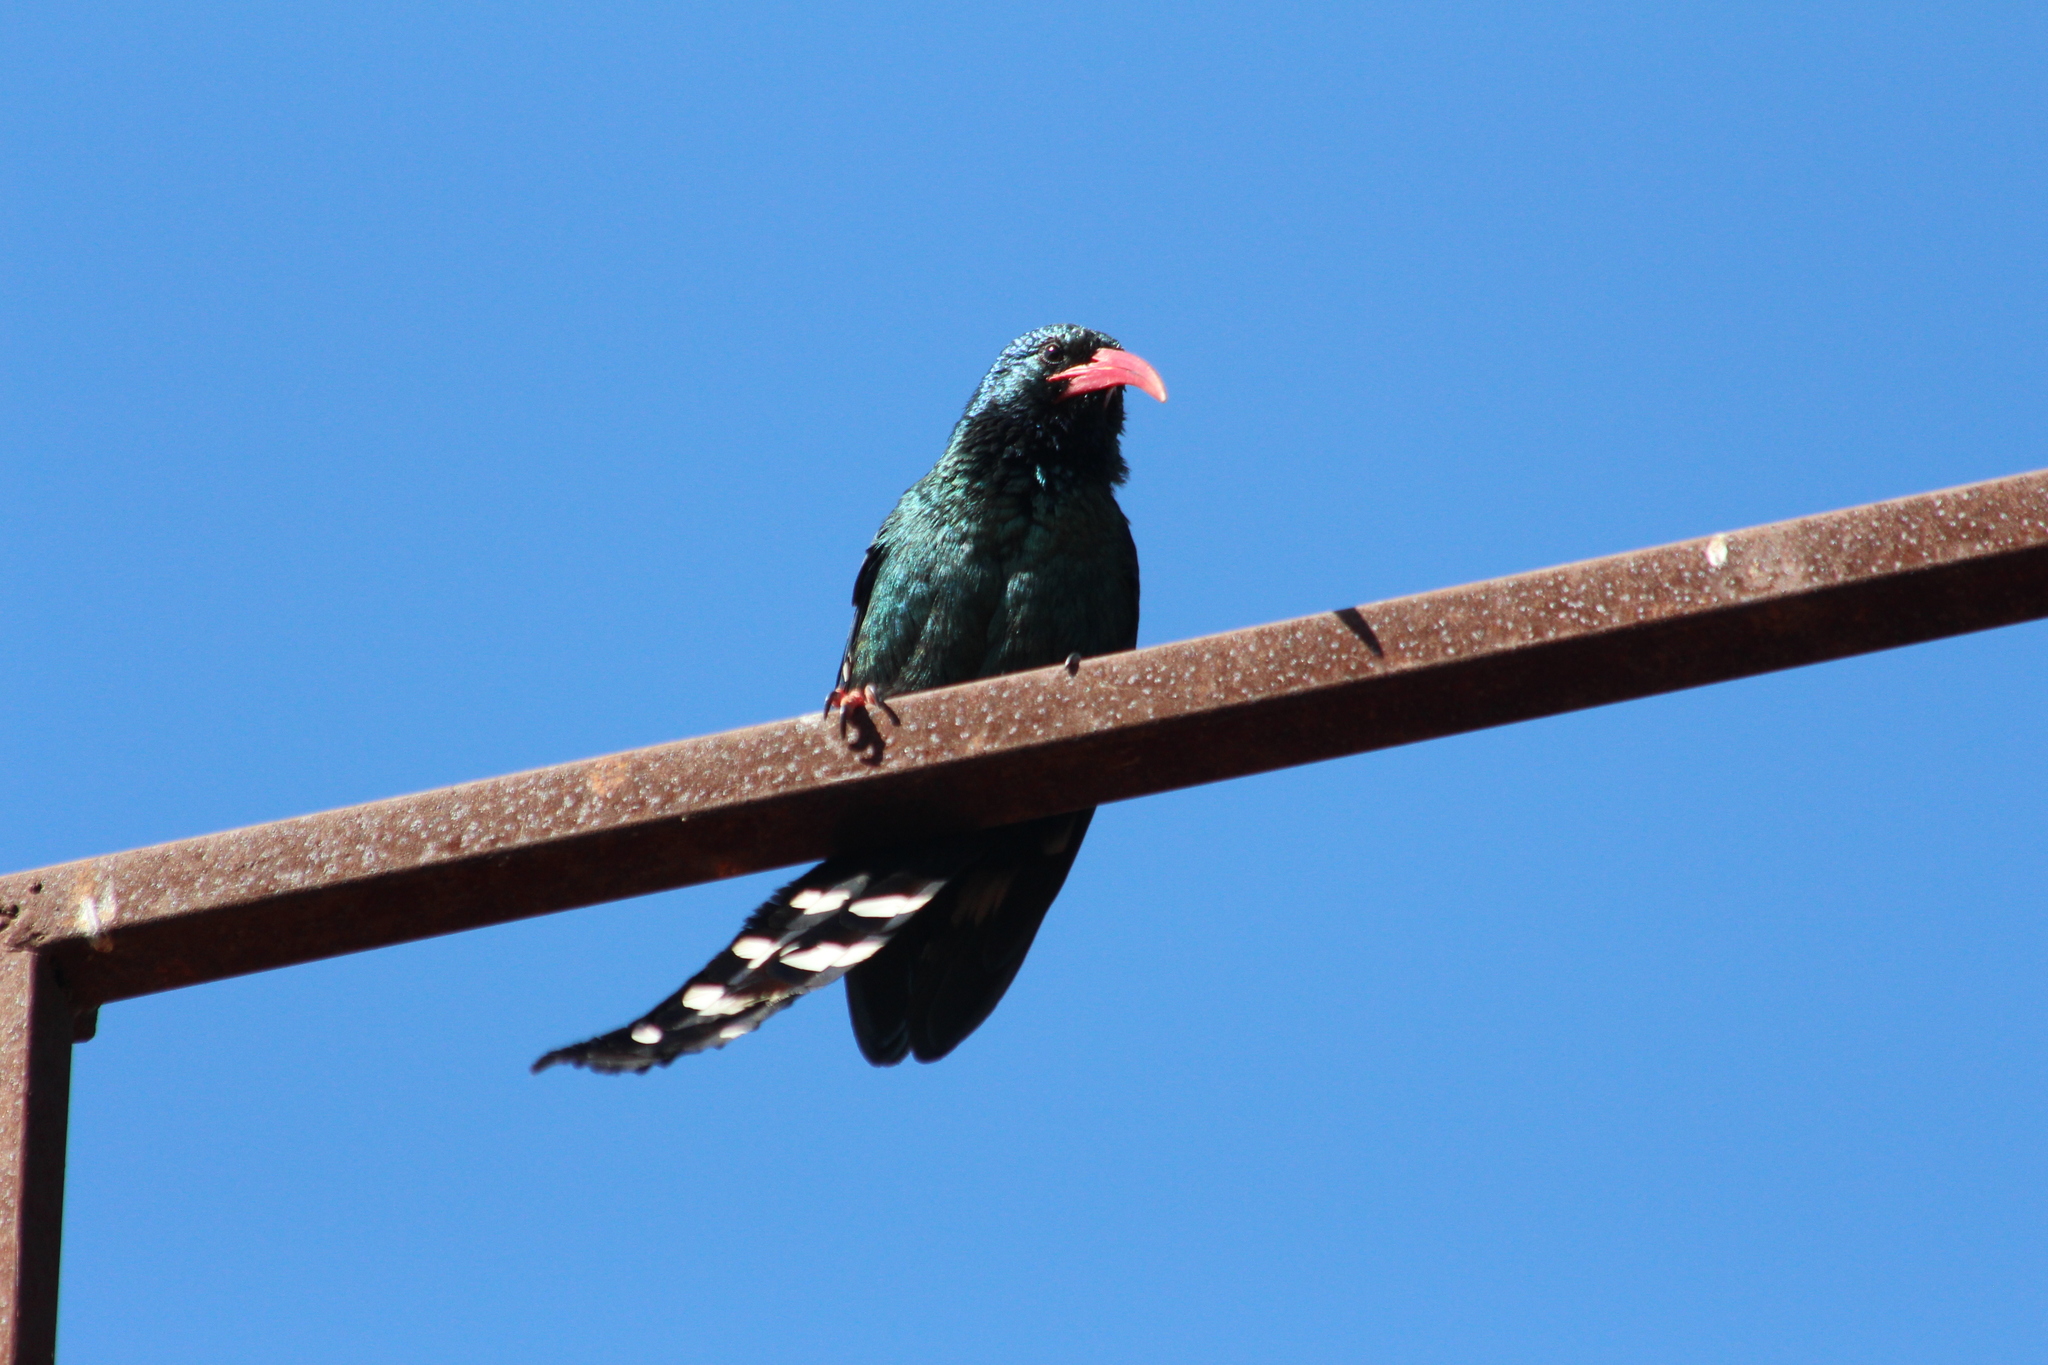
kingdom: Animalia
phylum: Chordata
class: Aves
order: Bucerotiformes
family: Phoeniculidae
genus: Phoeniculus
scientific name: Phoeniculus purpureus
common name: Green woodhoopoe
